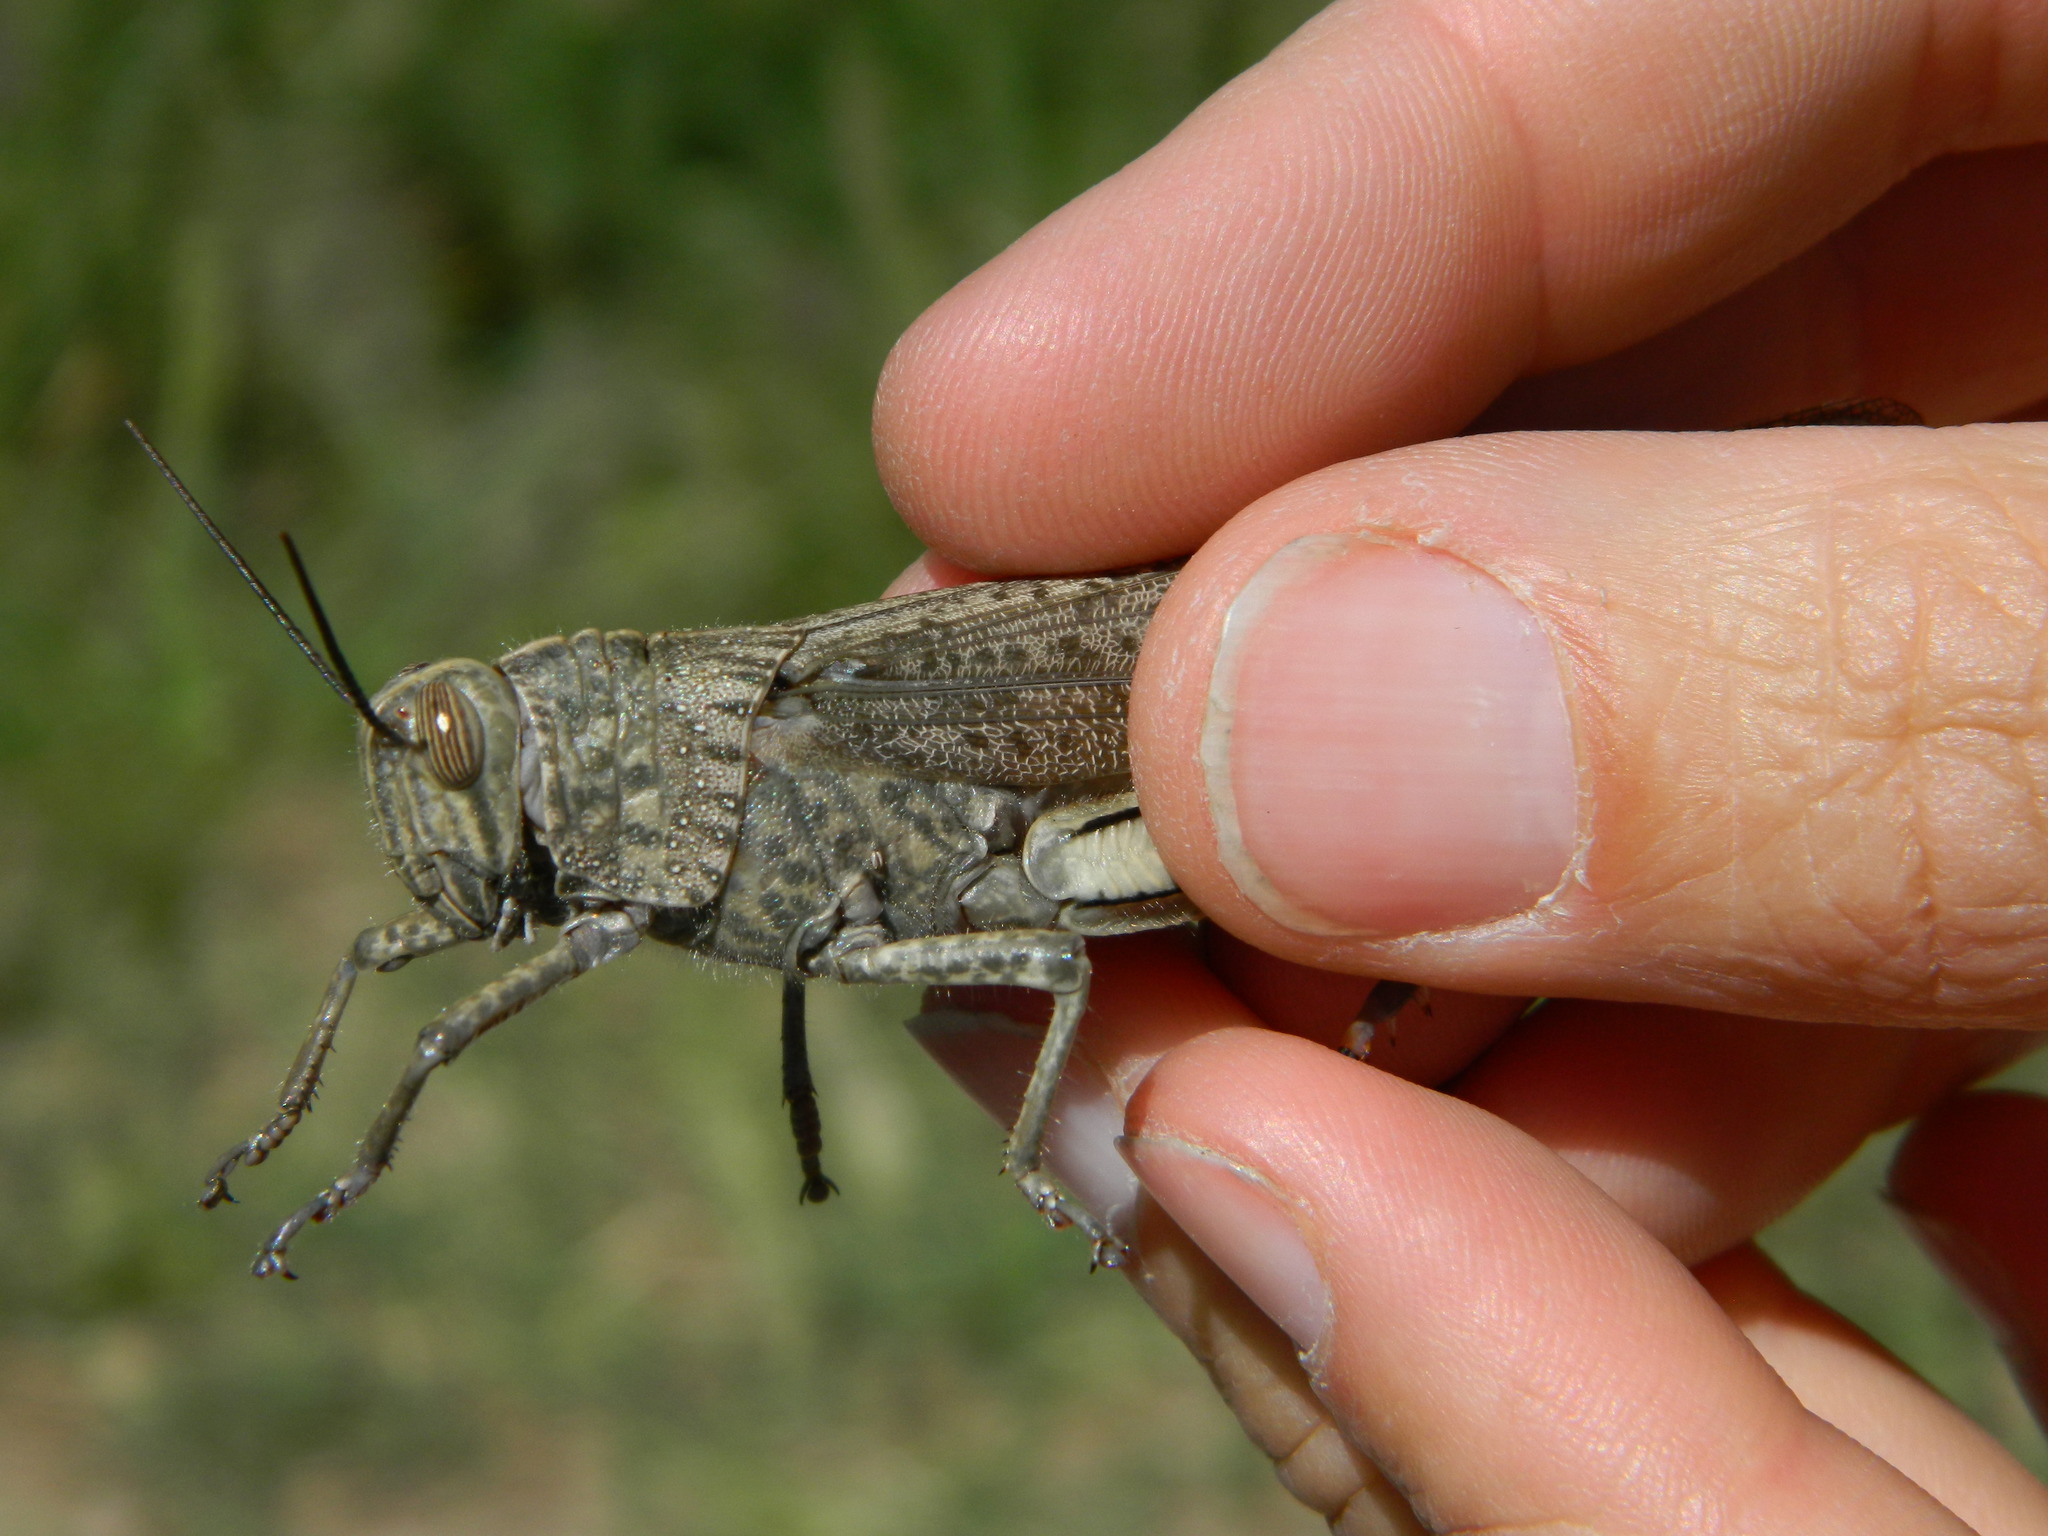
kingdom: Animalia
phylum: Arthropoda
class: Insecta
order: Orthoptera
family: Acrididae
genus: Anacridium
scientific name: Anacridium aegyptium
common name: Egyptian grasshopper
